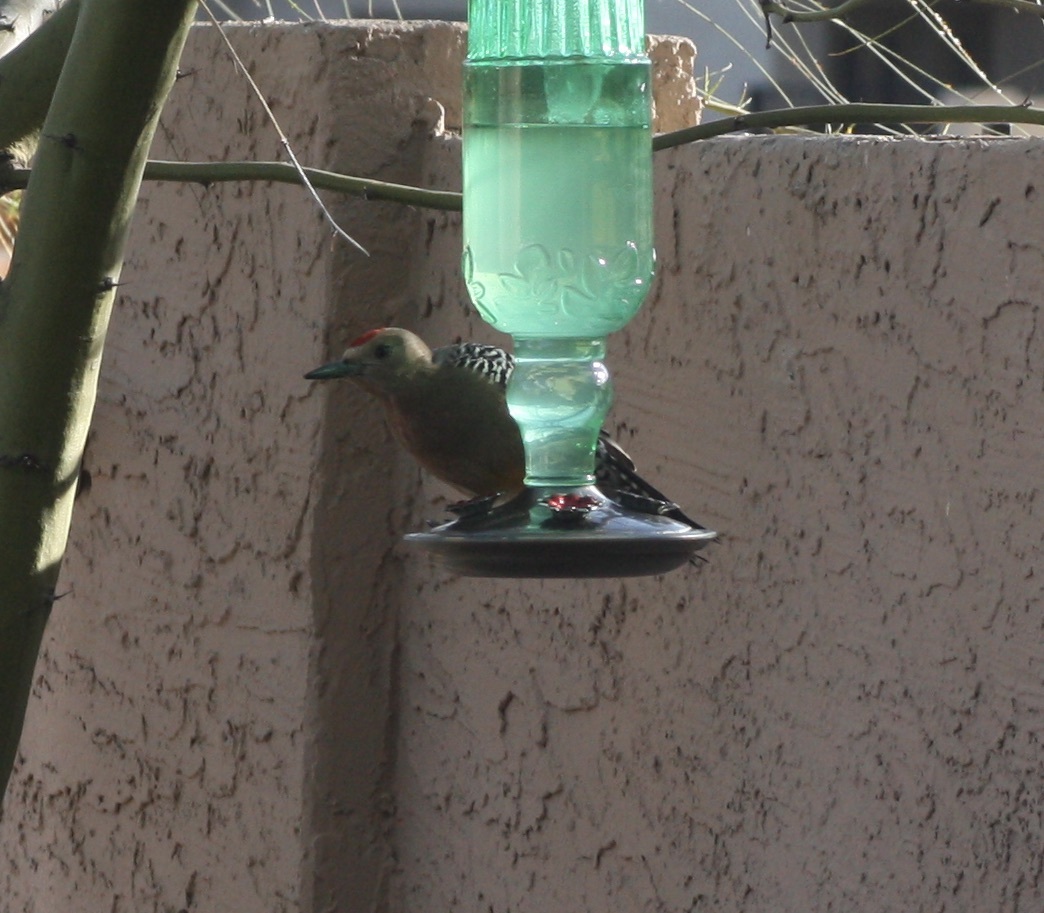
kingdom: Animalia
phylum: Chordata
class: Aves
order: Piciformes
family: Picidae
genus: Melanerpes
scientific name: Melanerpes uropygialis
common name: Gila woodpecker
